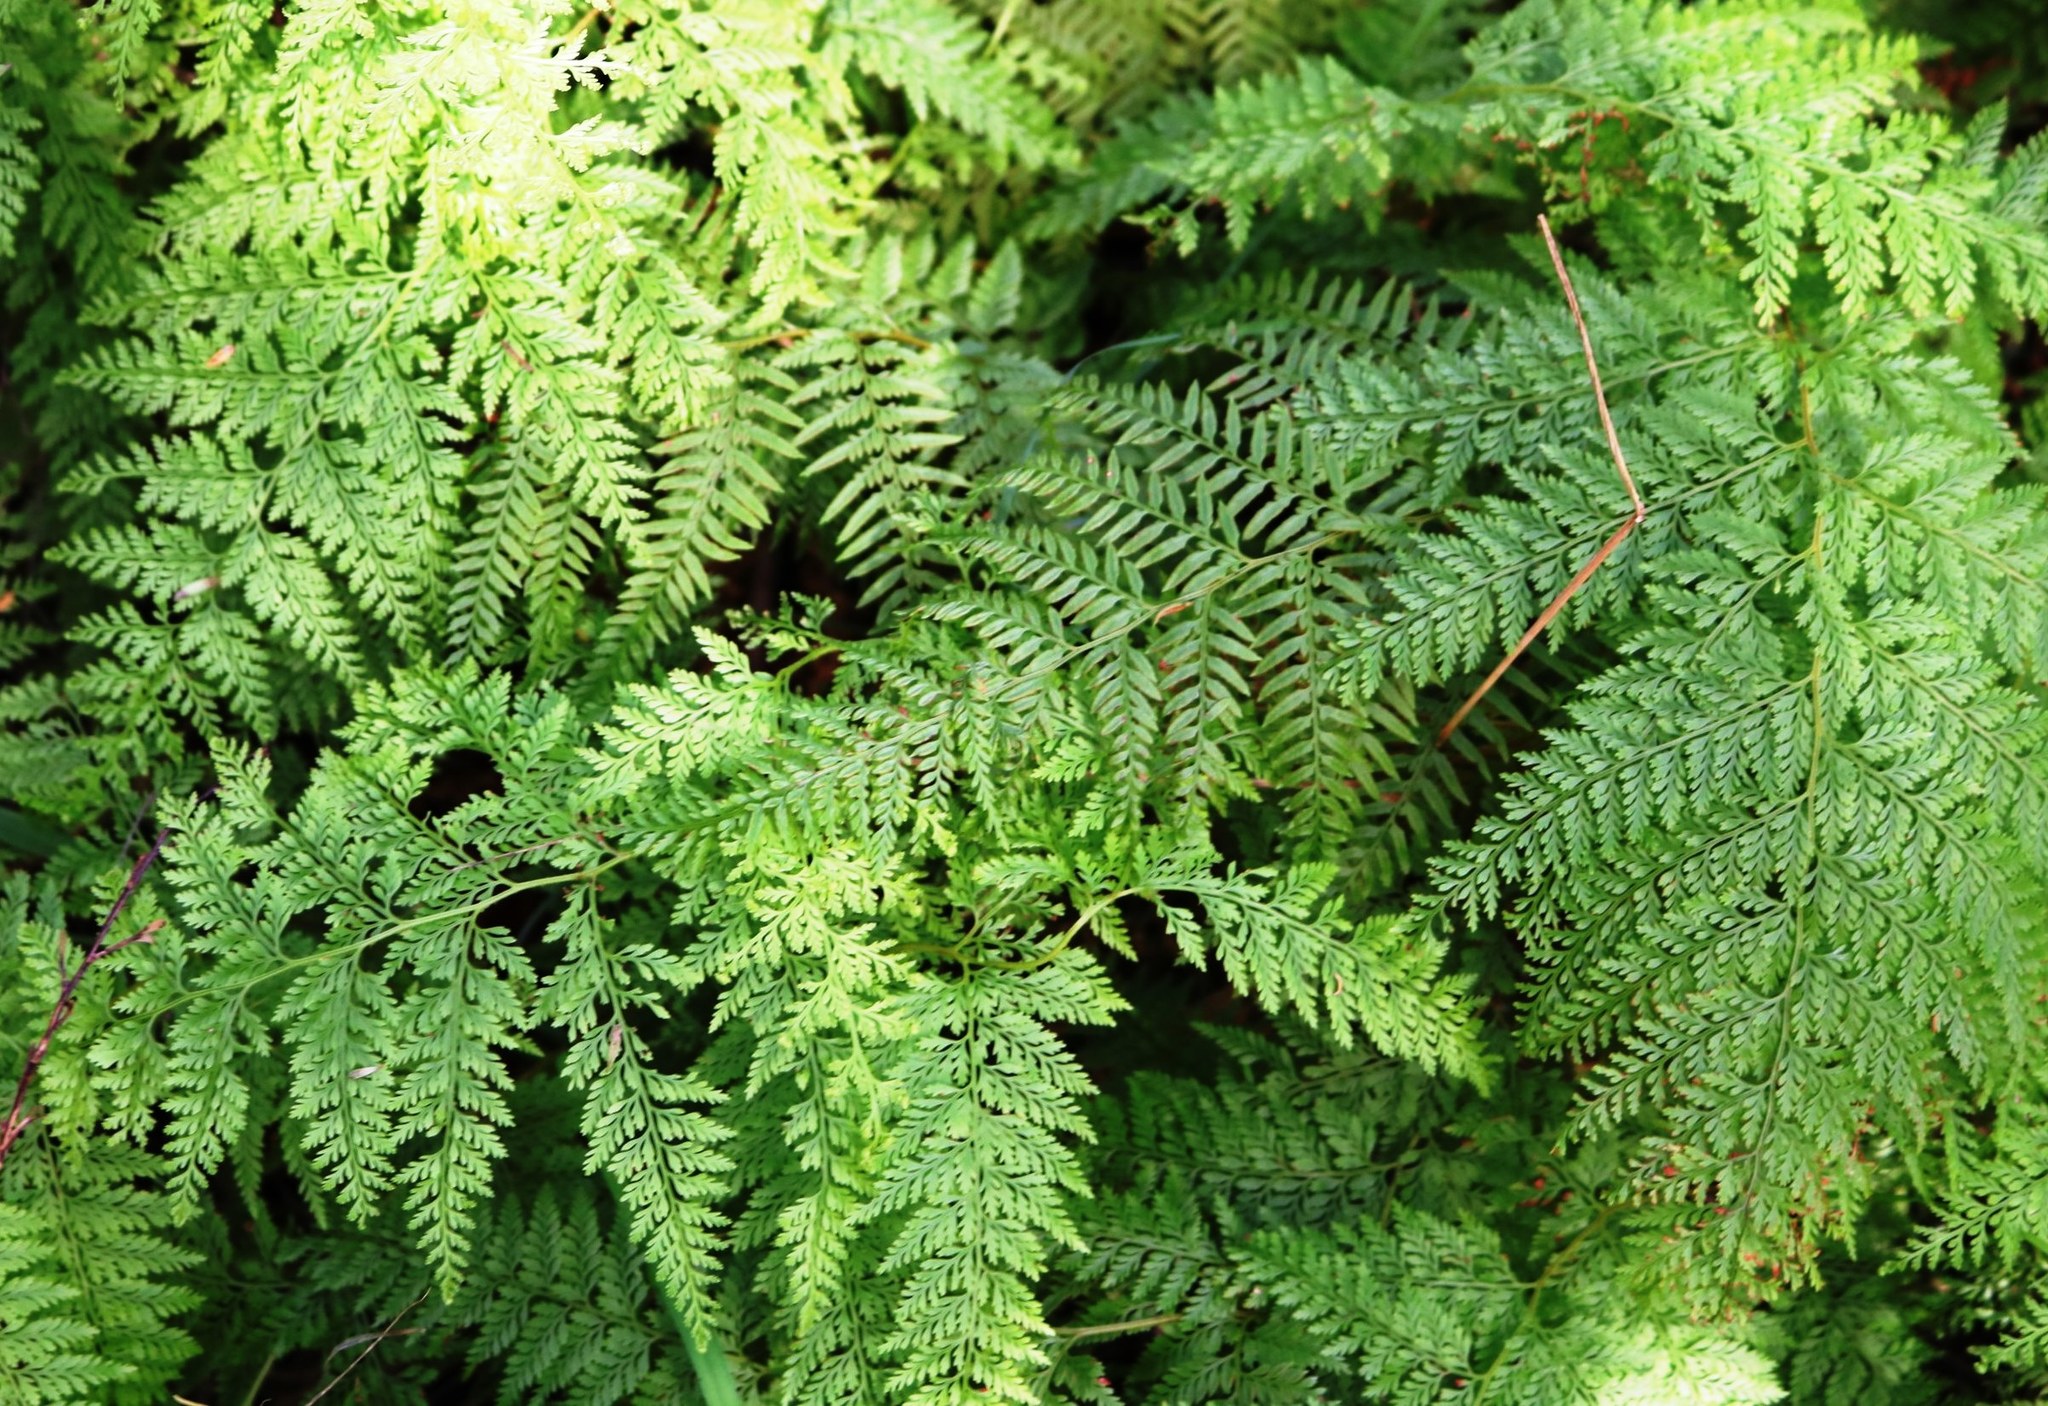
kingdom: Plantae
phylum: Tracheophyta
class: Polypodiopsida
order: Polypodiales
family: Dennstaedtiaceae
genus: Paesia
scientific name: Paesia scaberula
